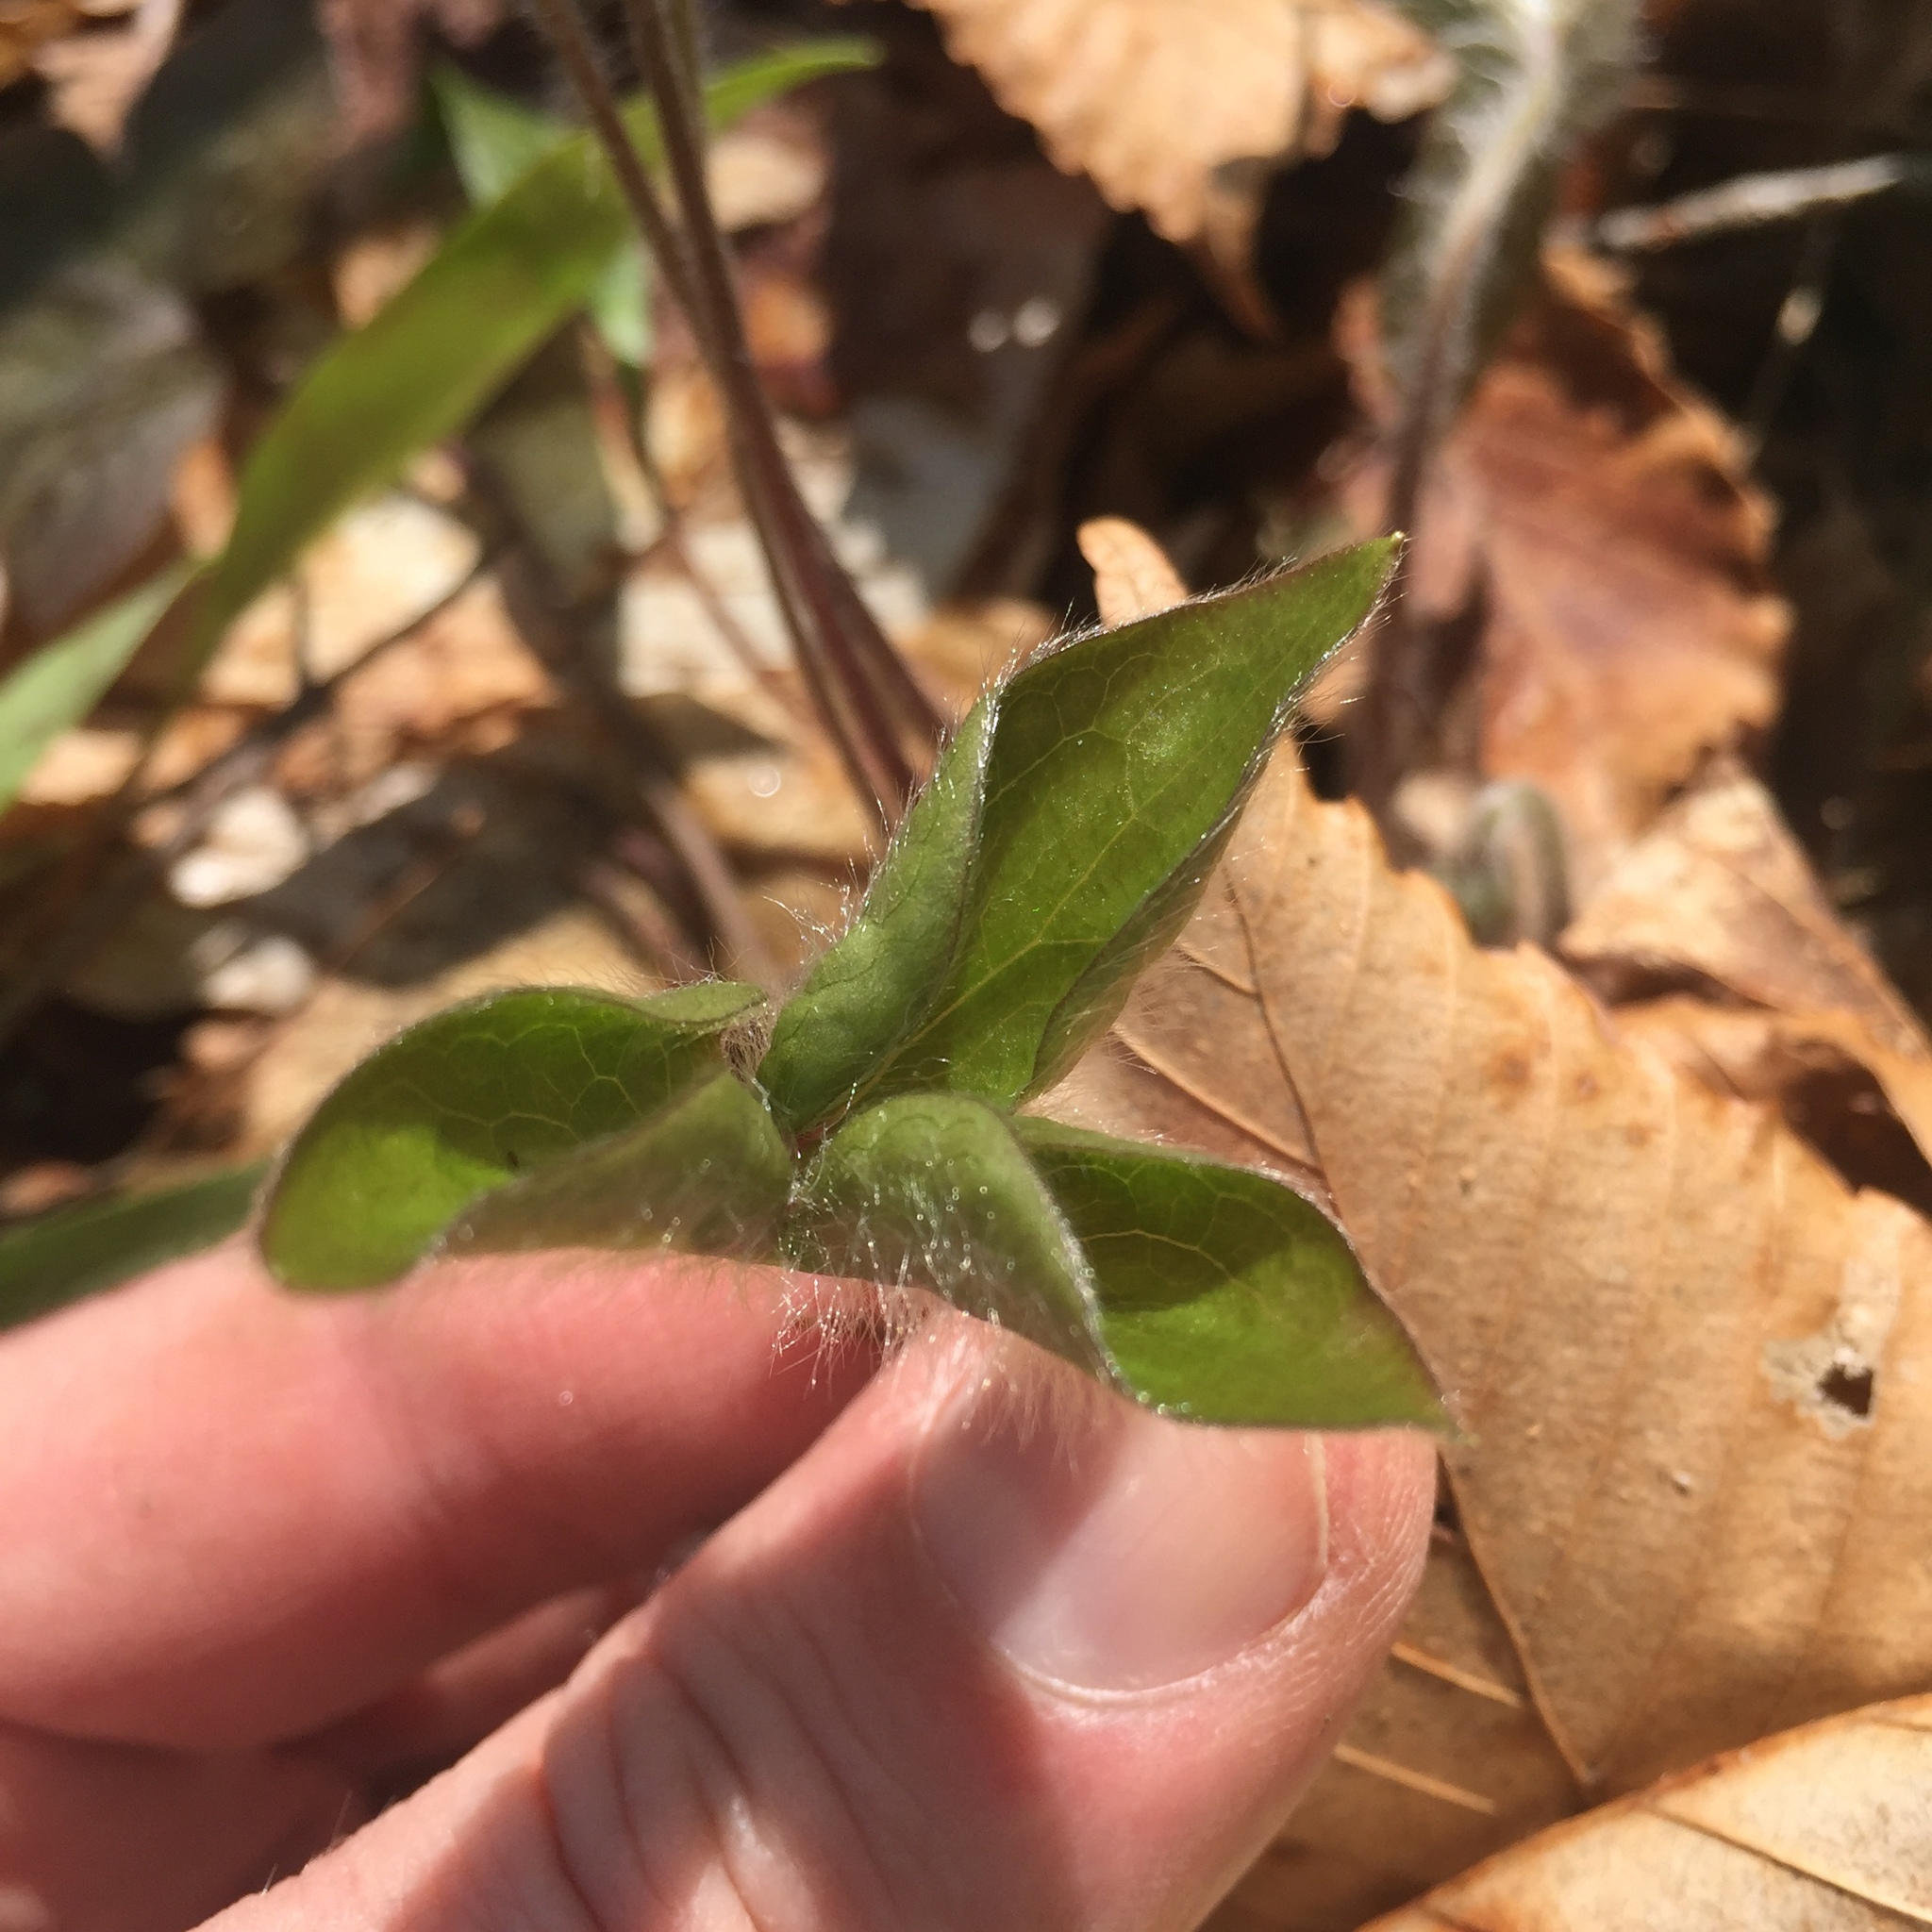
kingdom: Plantae
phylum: Tracheophyta
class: Magnoliopsida
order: Ranunculales
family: Ranunculaceae
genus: Hepatica
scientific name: Hepatica acutiloba
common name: Sharp-lobed hepatica
